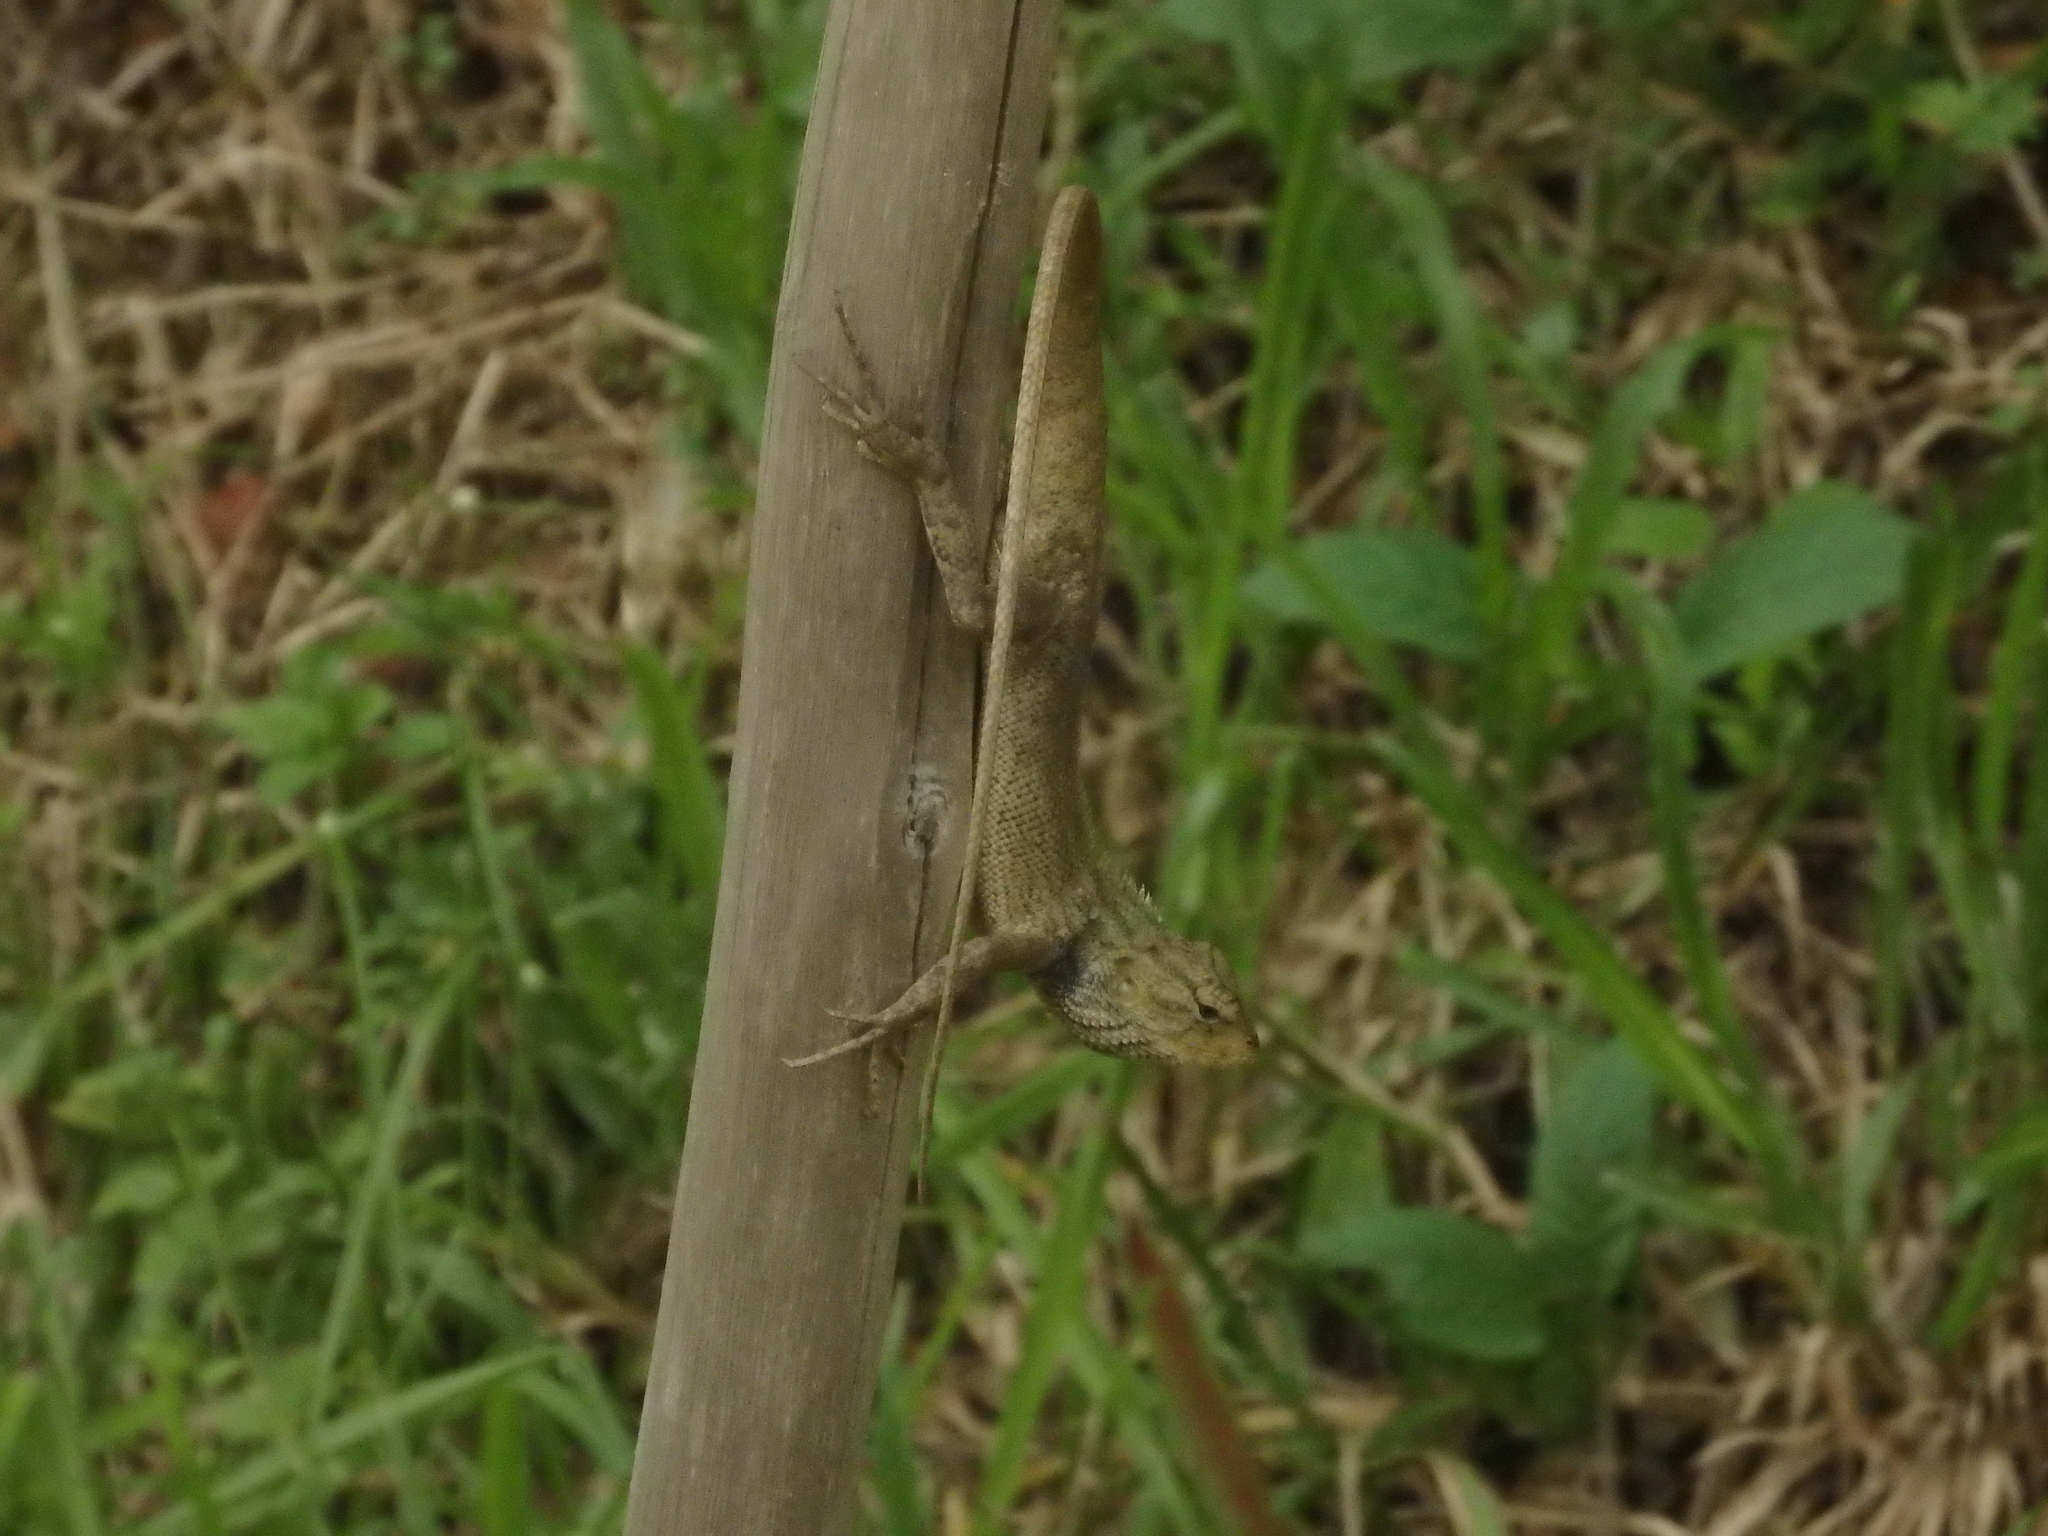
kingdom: Animalia
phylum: Chordata
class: Squamata
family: Agamidae
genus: Calotes
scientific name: Calotes versicolor
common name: Oriental garden lizard
